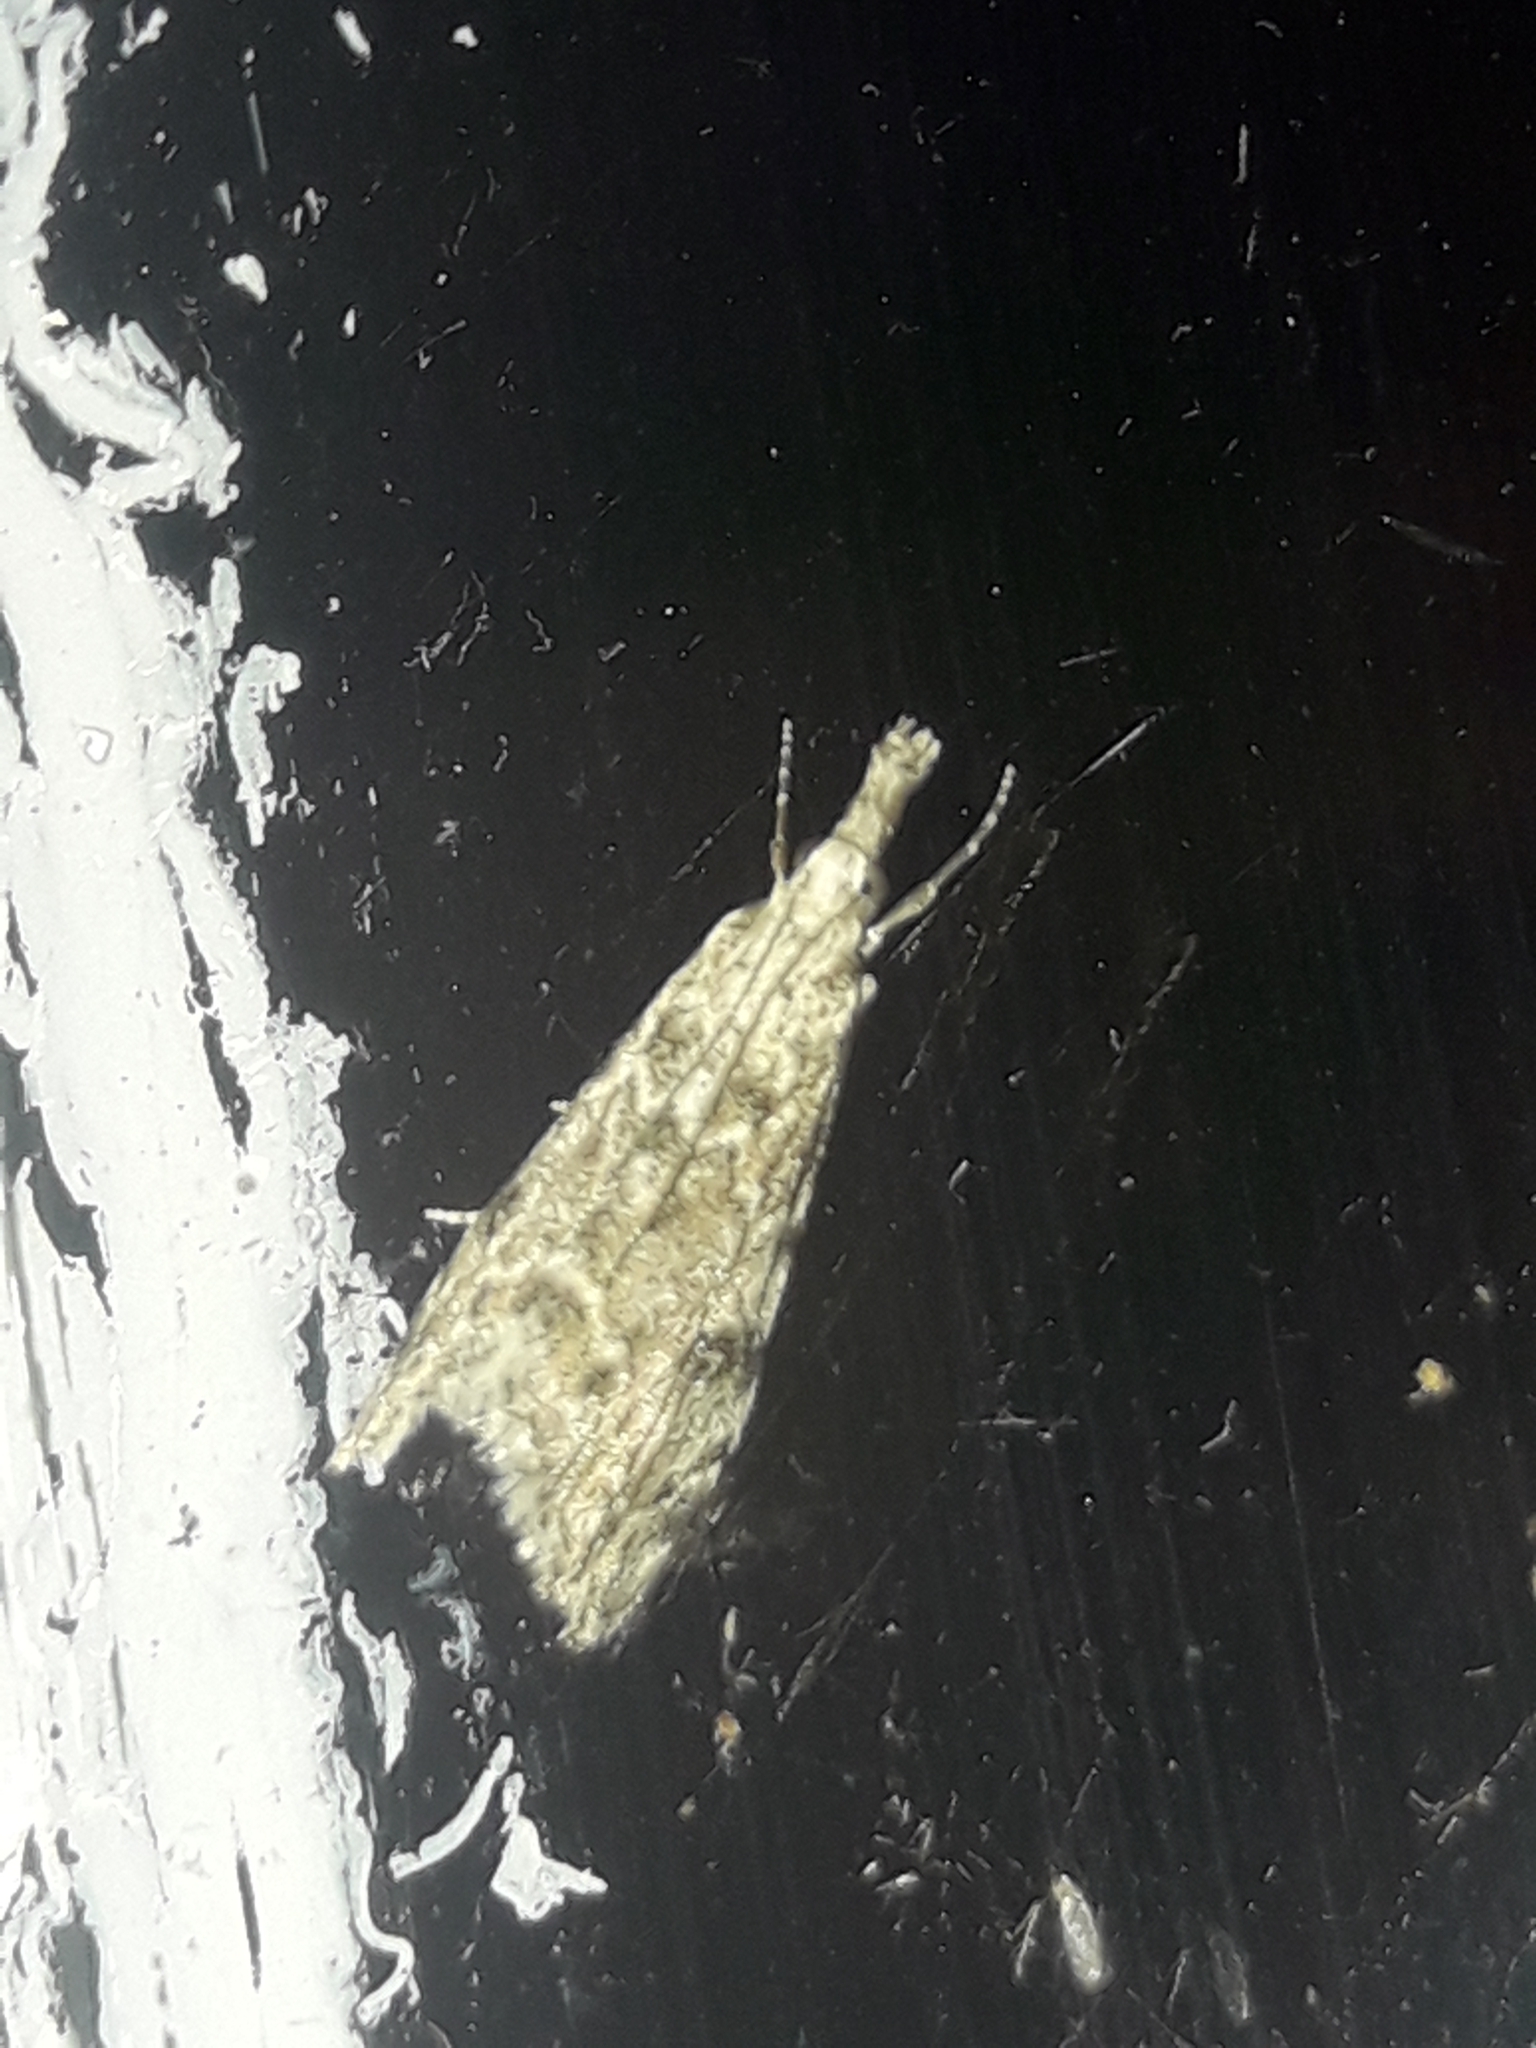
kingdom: Animalia
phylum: Arthropoda
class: Insecta
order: Lepidoptera
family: Crambidae
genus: Glaucocharis
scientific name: Glaucocharis elaina
